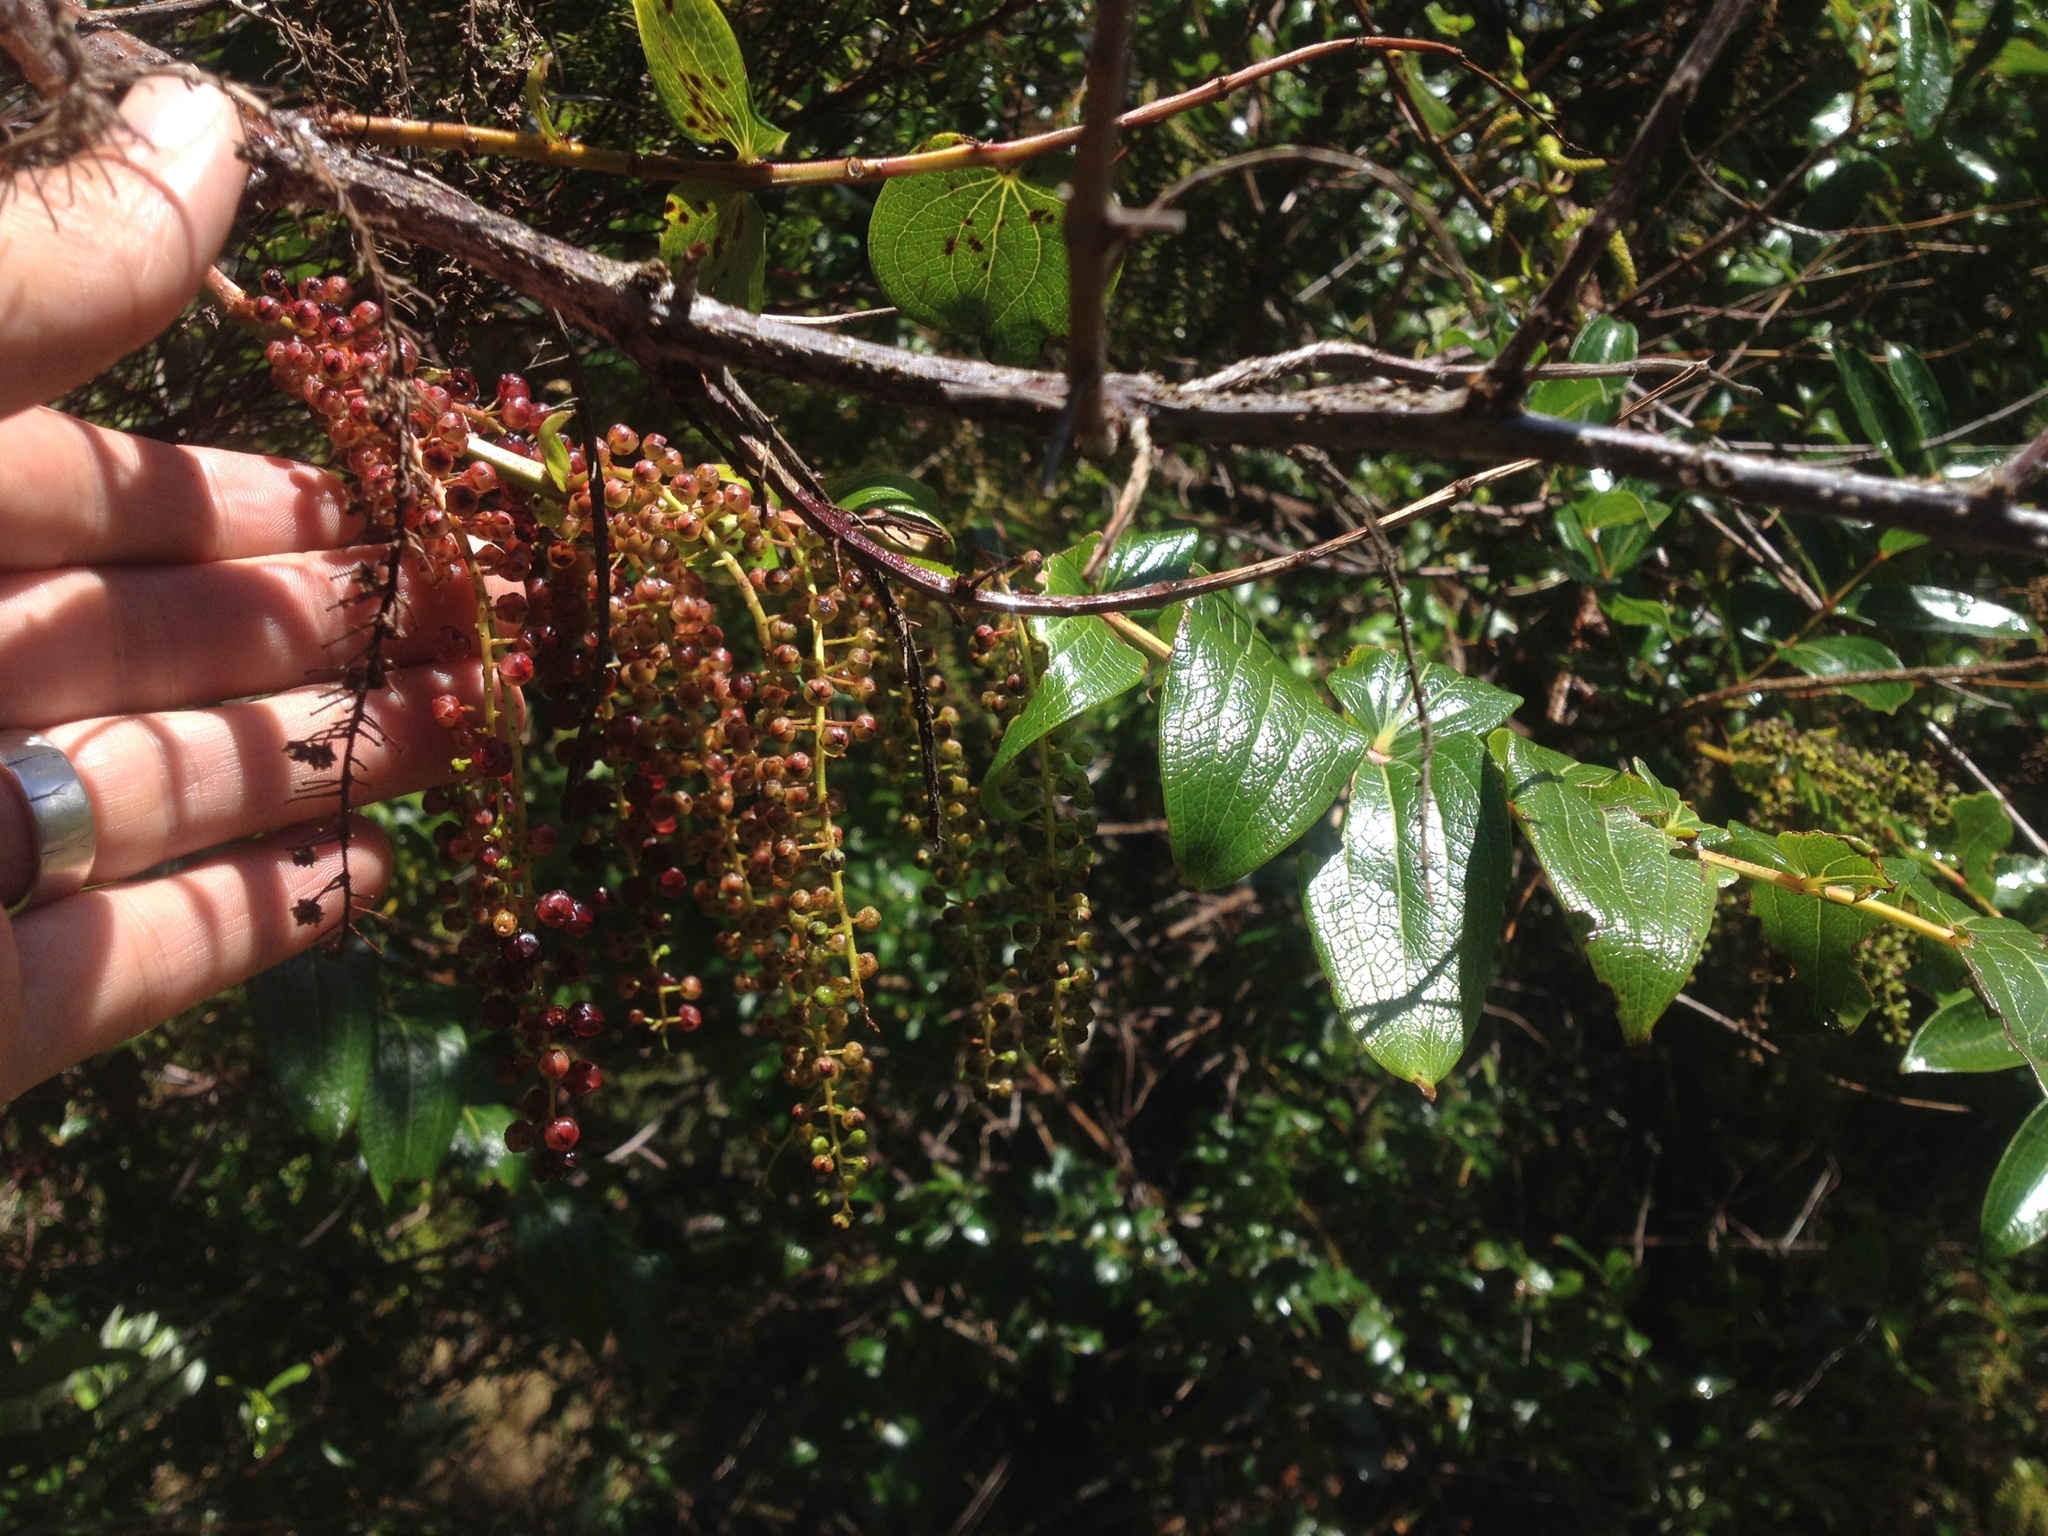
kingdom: Plantae
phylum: Tracheophyta
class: Magnoliopsida
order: Cucurbitales
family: Coriariaceae
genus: Coriaria
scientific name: Coriaria arborea
